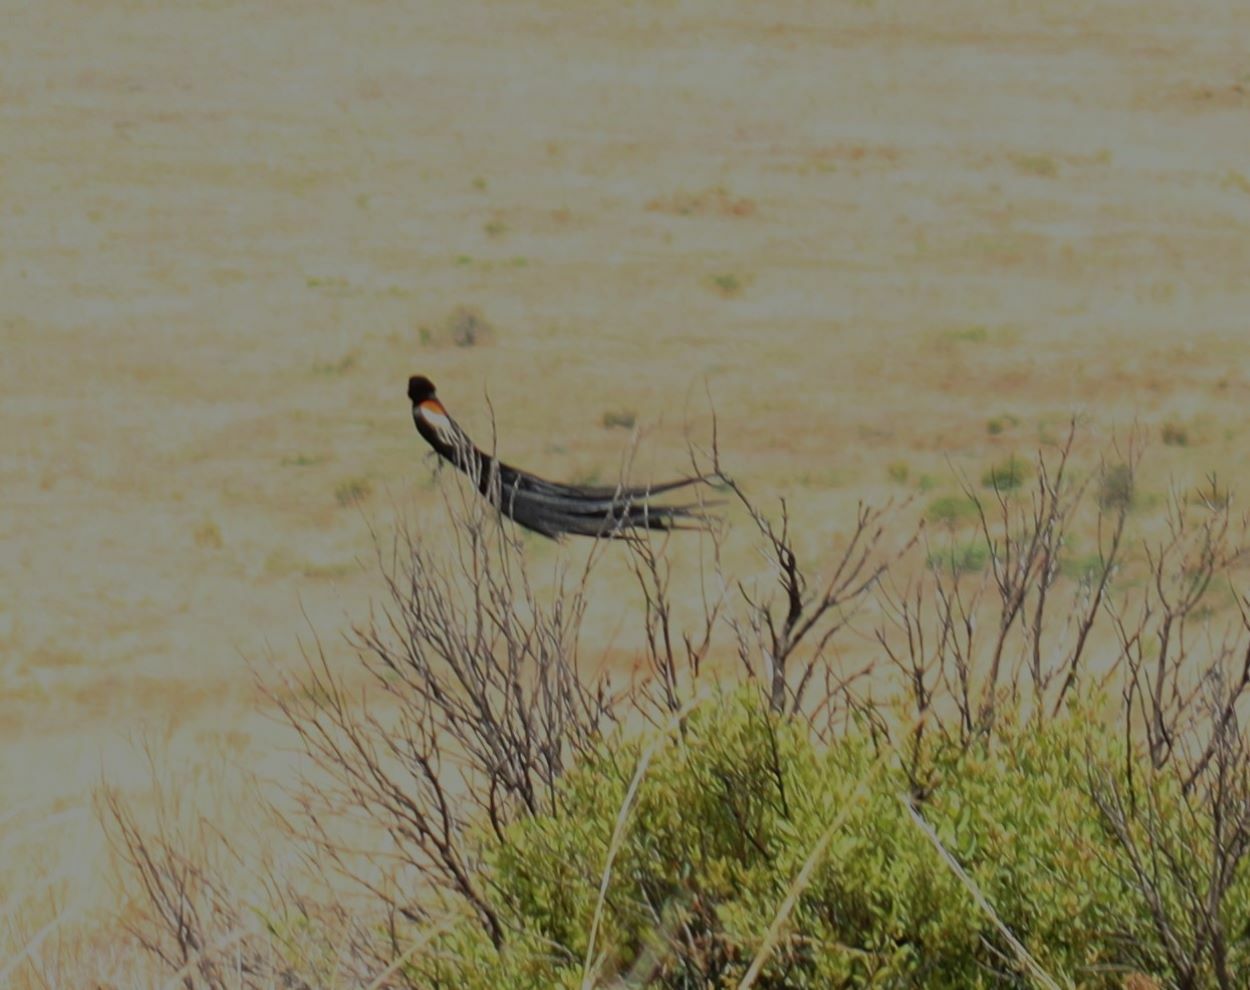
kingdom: Animalia
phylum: Chordata
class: Aves
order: Passeriformes
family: Ploceidae
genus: Euplectes
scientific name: Euplectes progne
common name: Long-tailed widowbird
